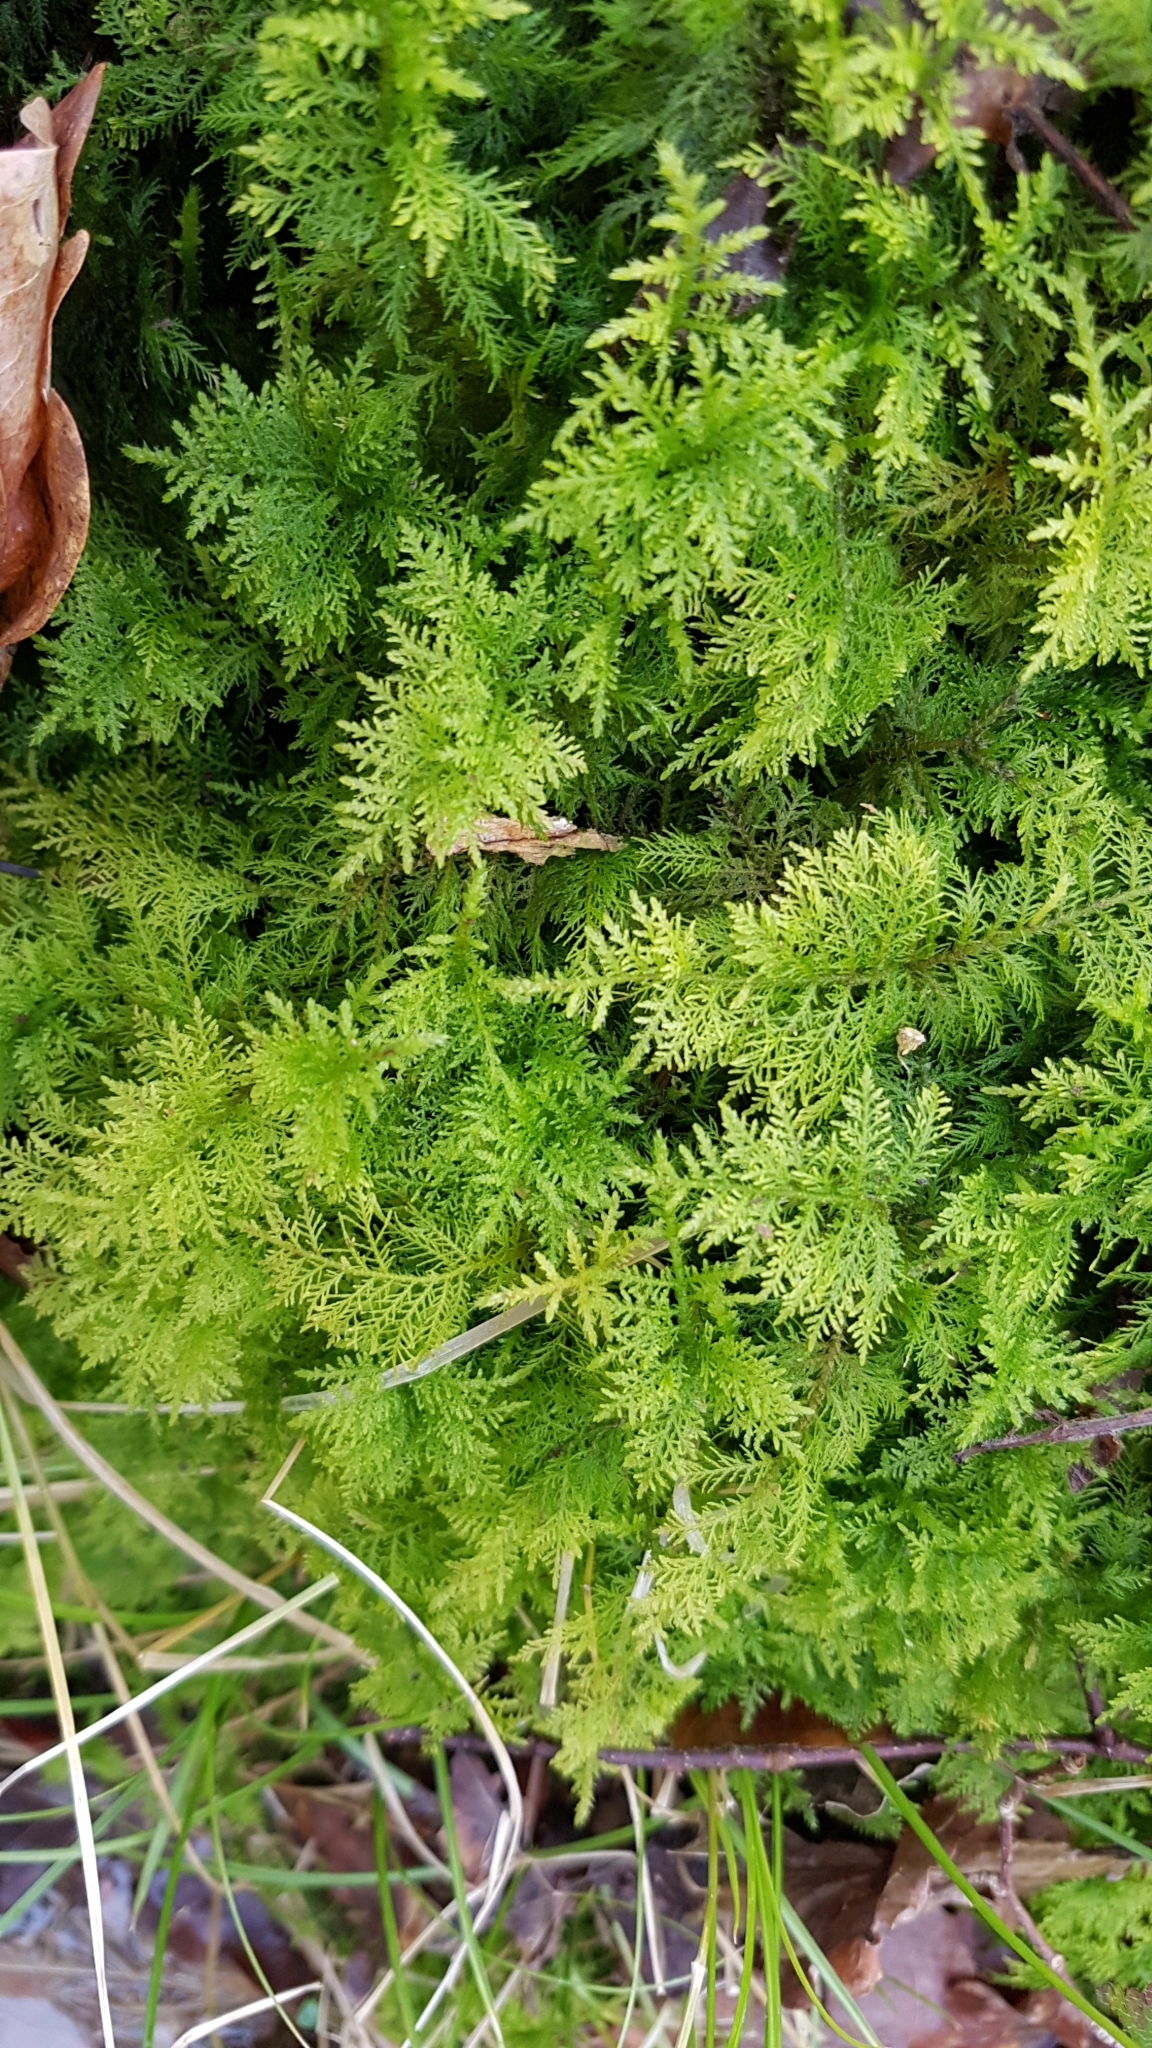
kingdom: Plantae
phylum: Bryophyta
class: Bryopsida
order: Hypnales
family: Thuidiaceae
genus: Thuidium
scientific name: Thuidium tamariscinum
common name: Common tamarisk-moss
